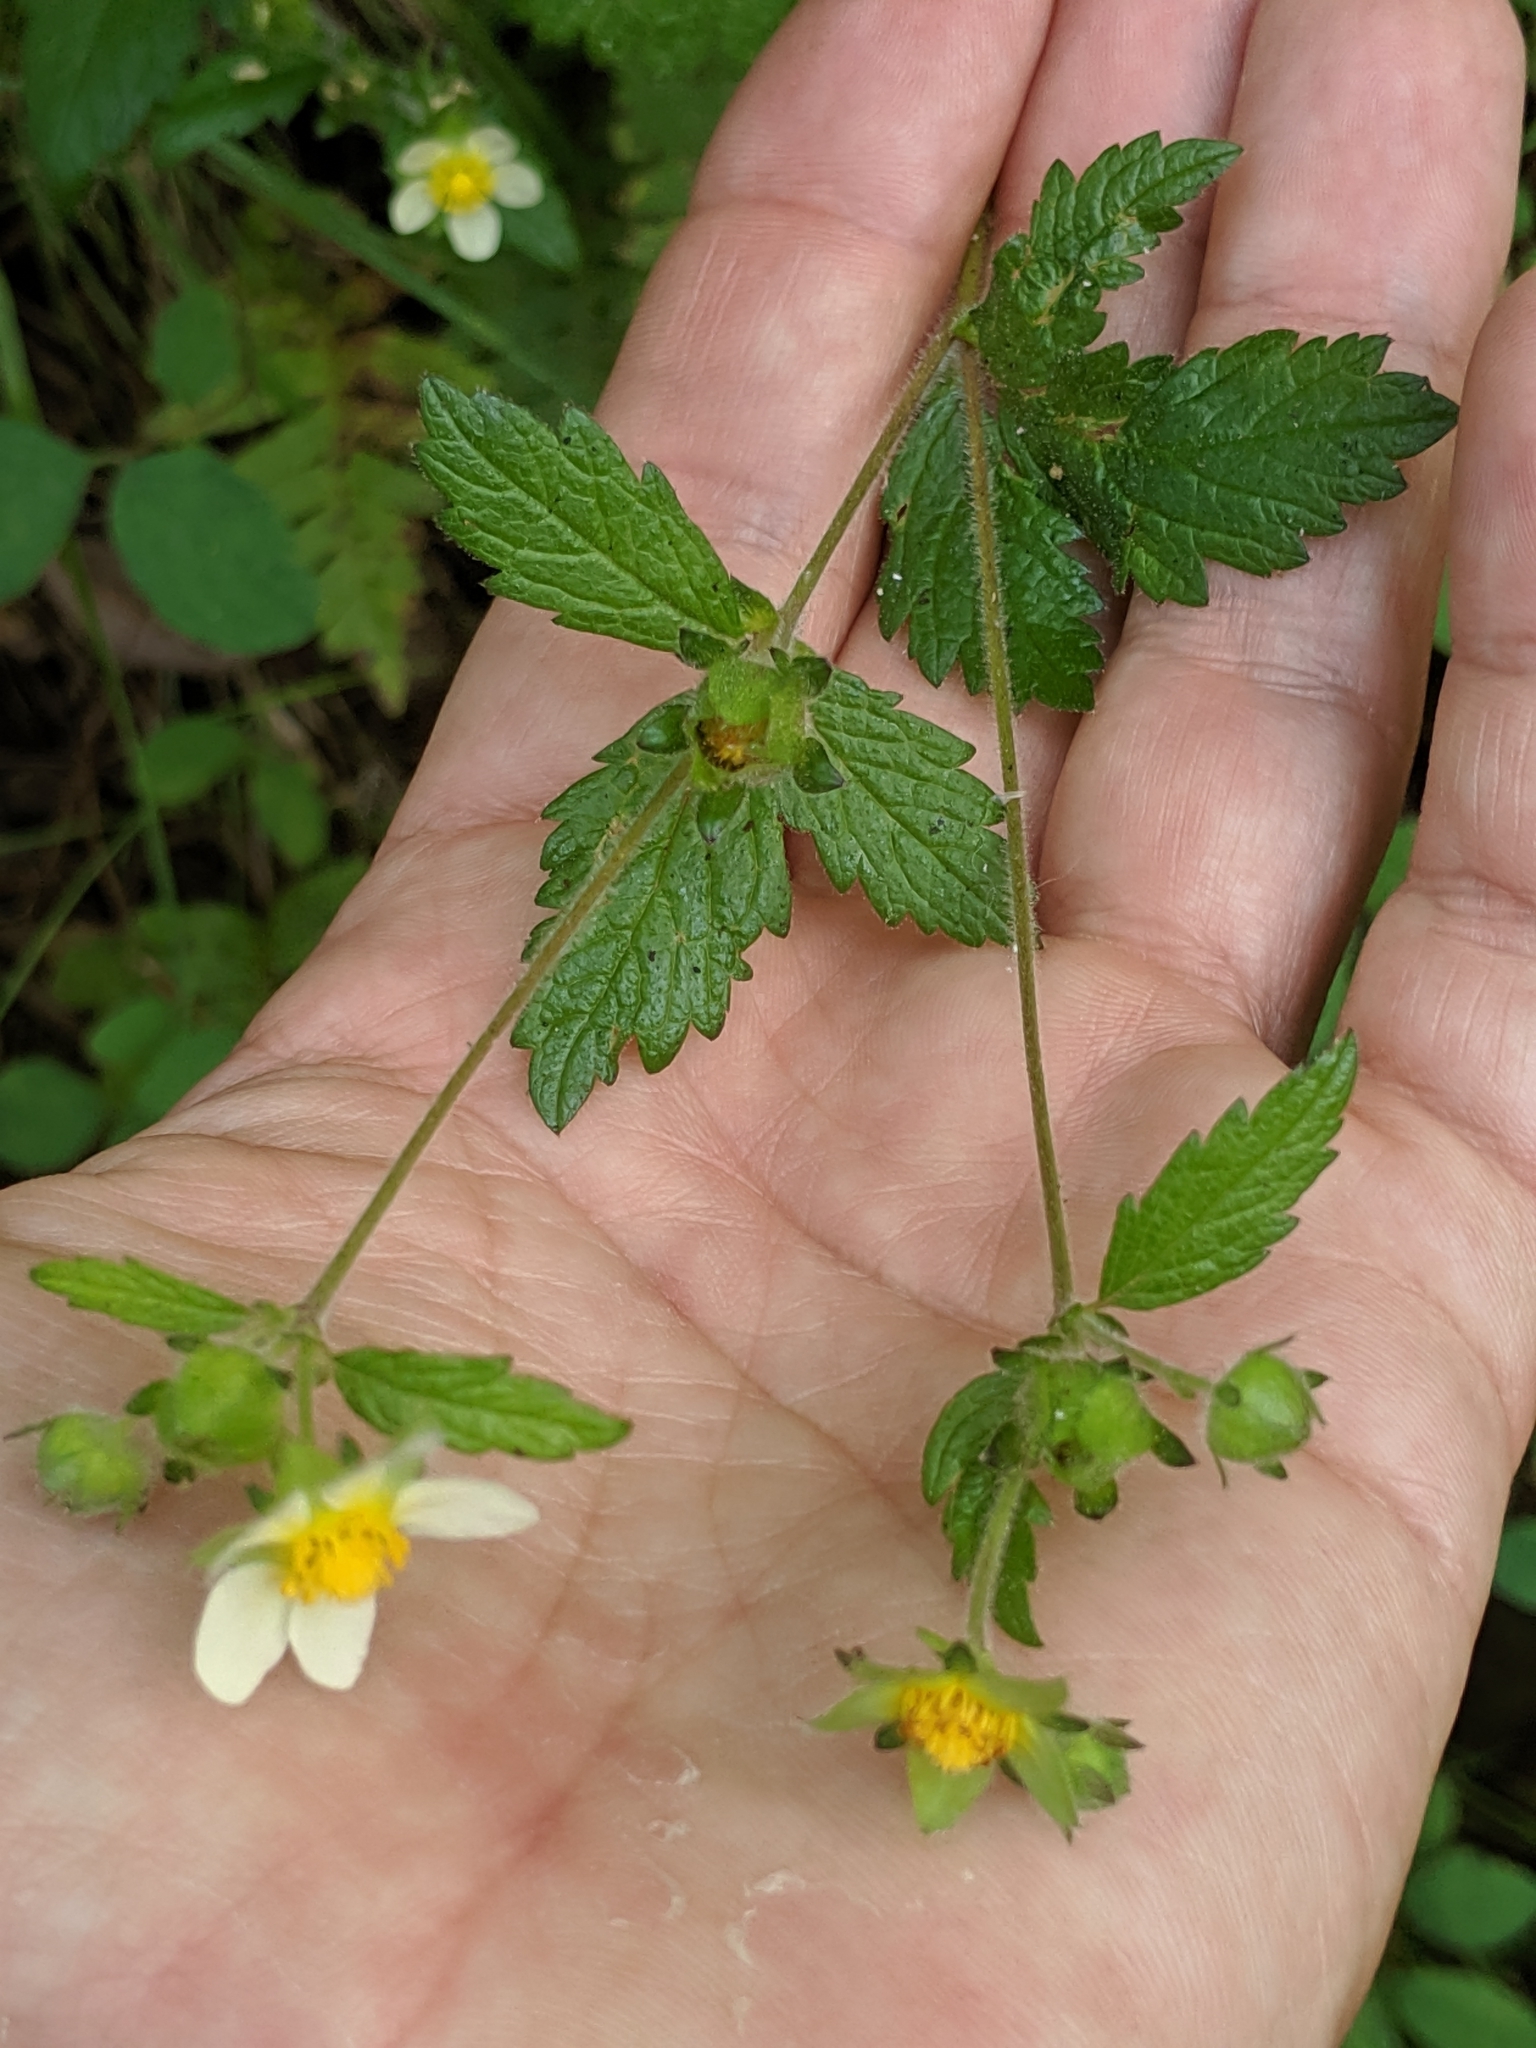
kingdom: Plantae
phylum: Tracheophyta
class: Magnoliopsida
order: Rosales
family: Rosaceae
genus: Drymocallis
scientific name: Drymocallis glandulosa
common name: Sticky cinquefoil
